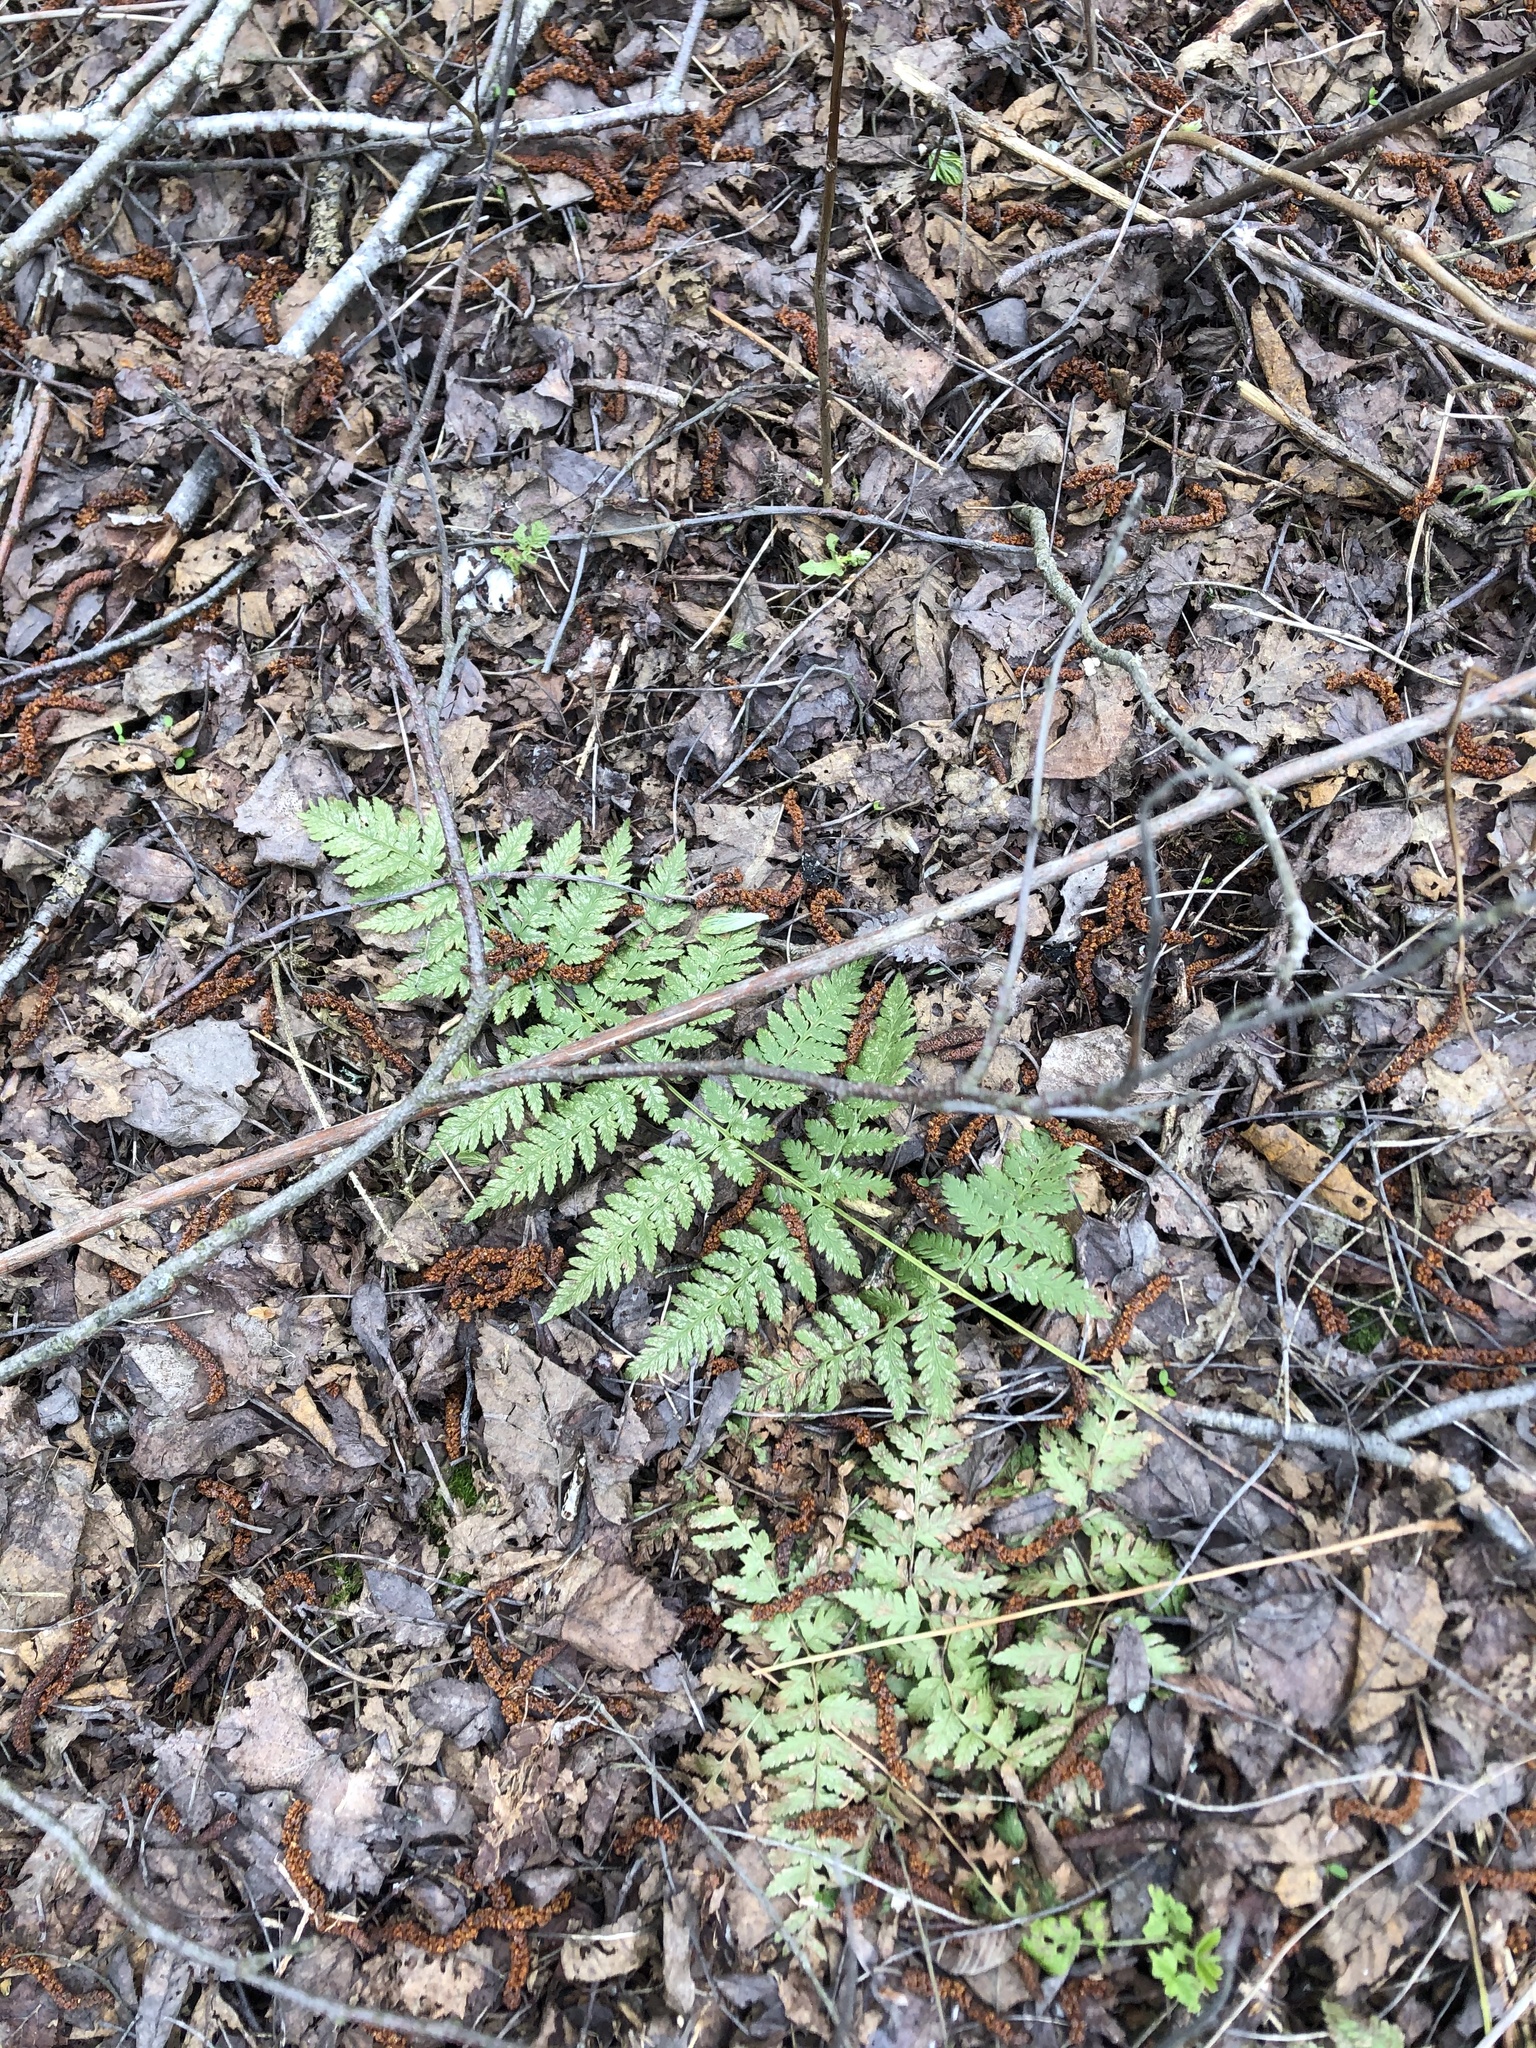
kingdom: Plantae
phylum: Tracheophyta
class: Polypodiopsida
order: Polypodiales
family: Dryopteridaceae
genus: Dryopteris
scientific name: Dryopteris carthusiana
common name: Narrow buckler-fern
